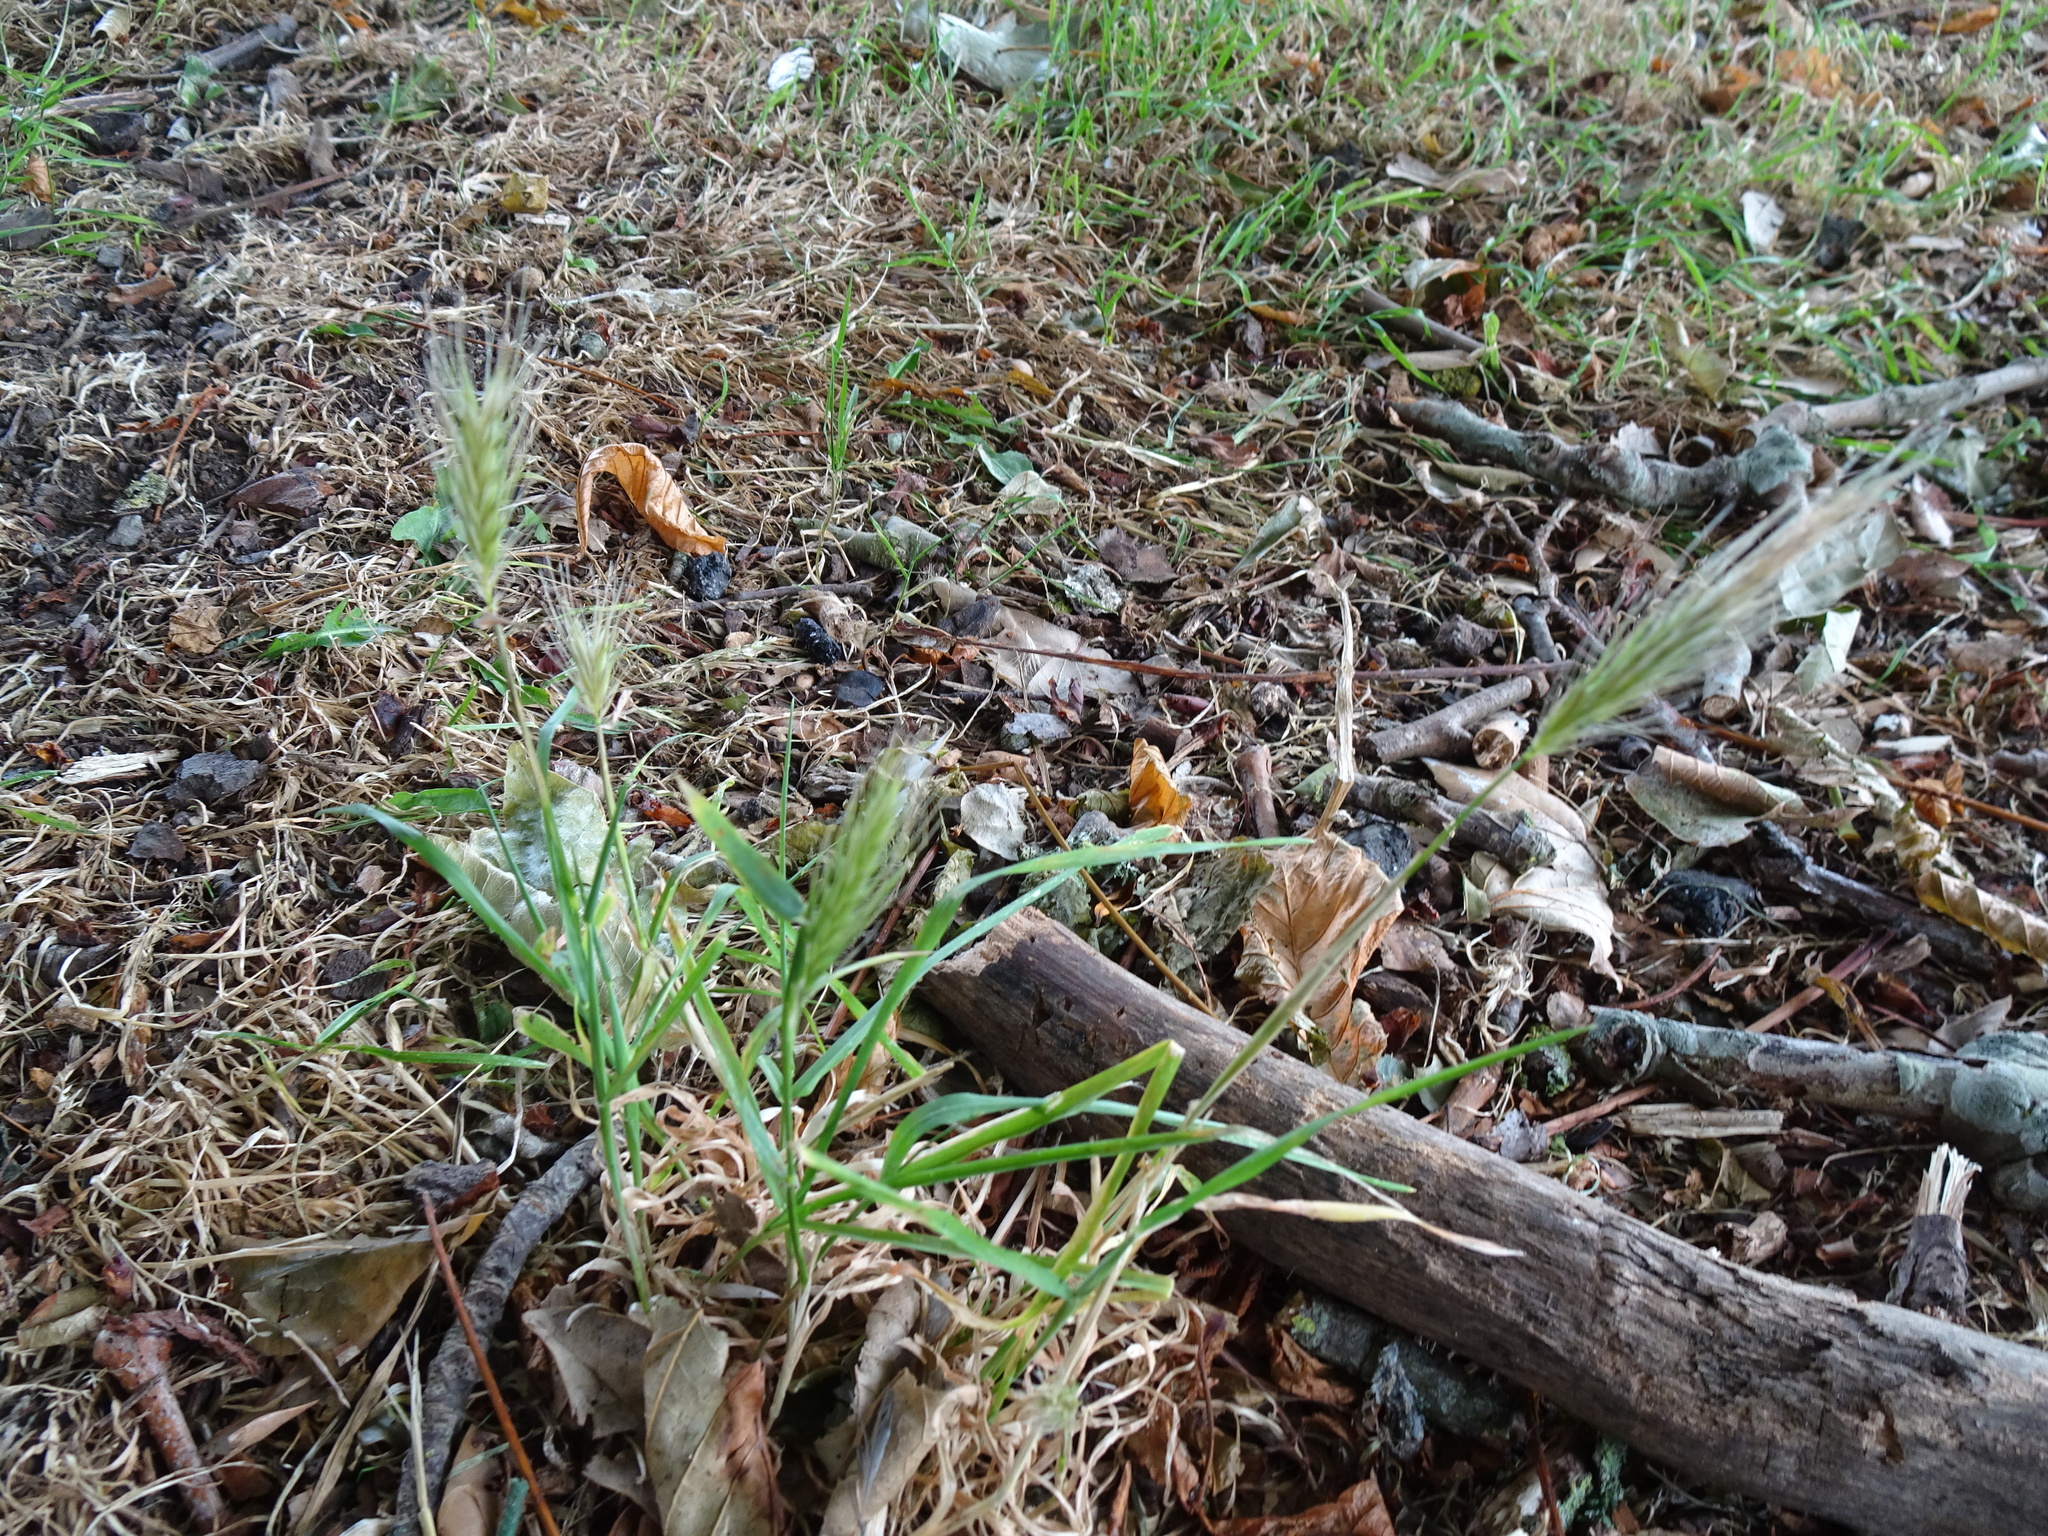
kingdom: Plantae
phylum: Tracheophyta
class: Liliopsida
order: Poales
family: Poaceae
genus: Hordeum
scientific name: Hordeum murinum
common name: Wall barley
